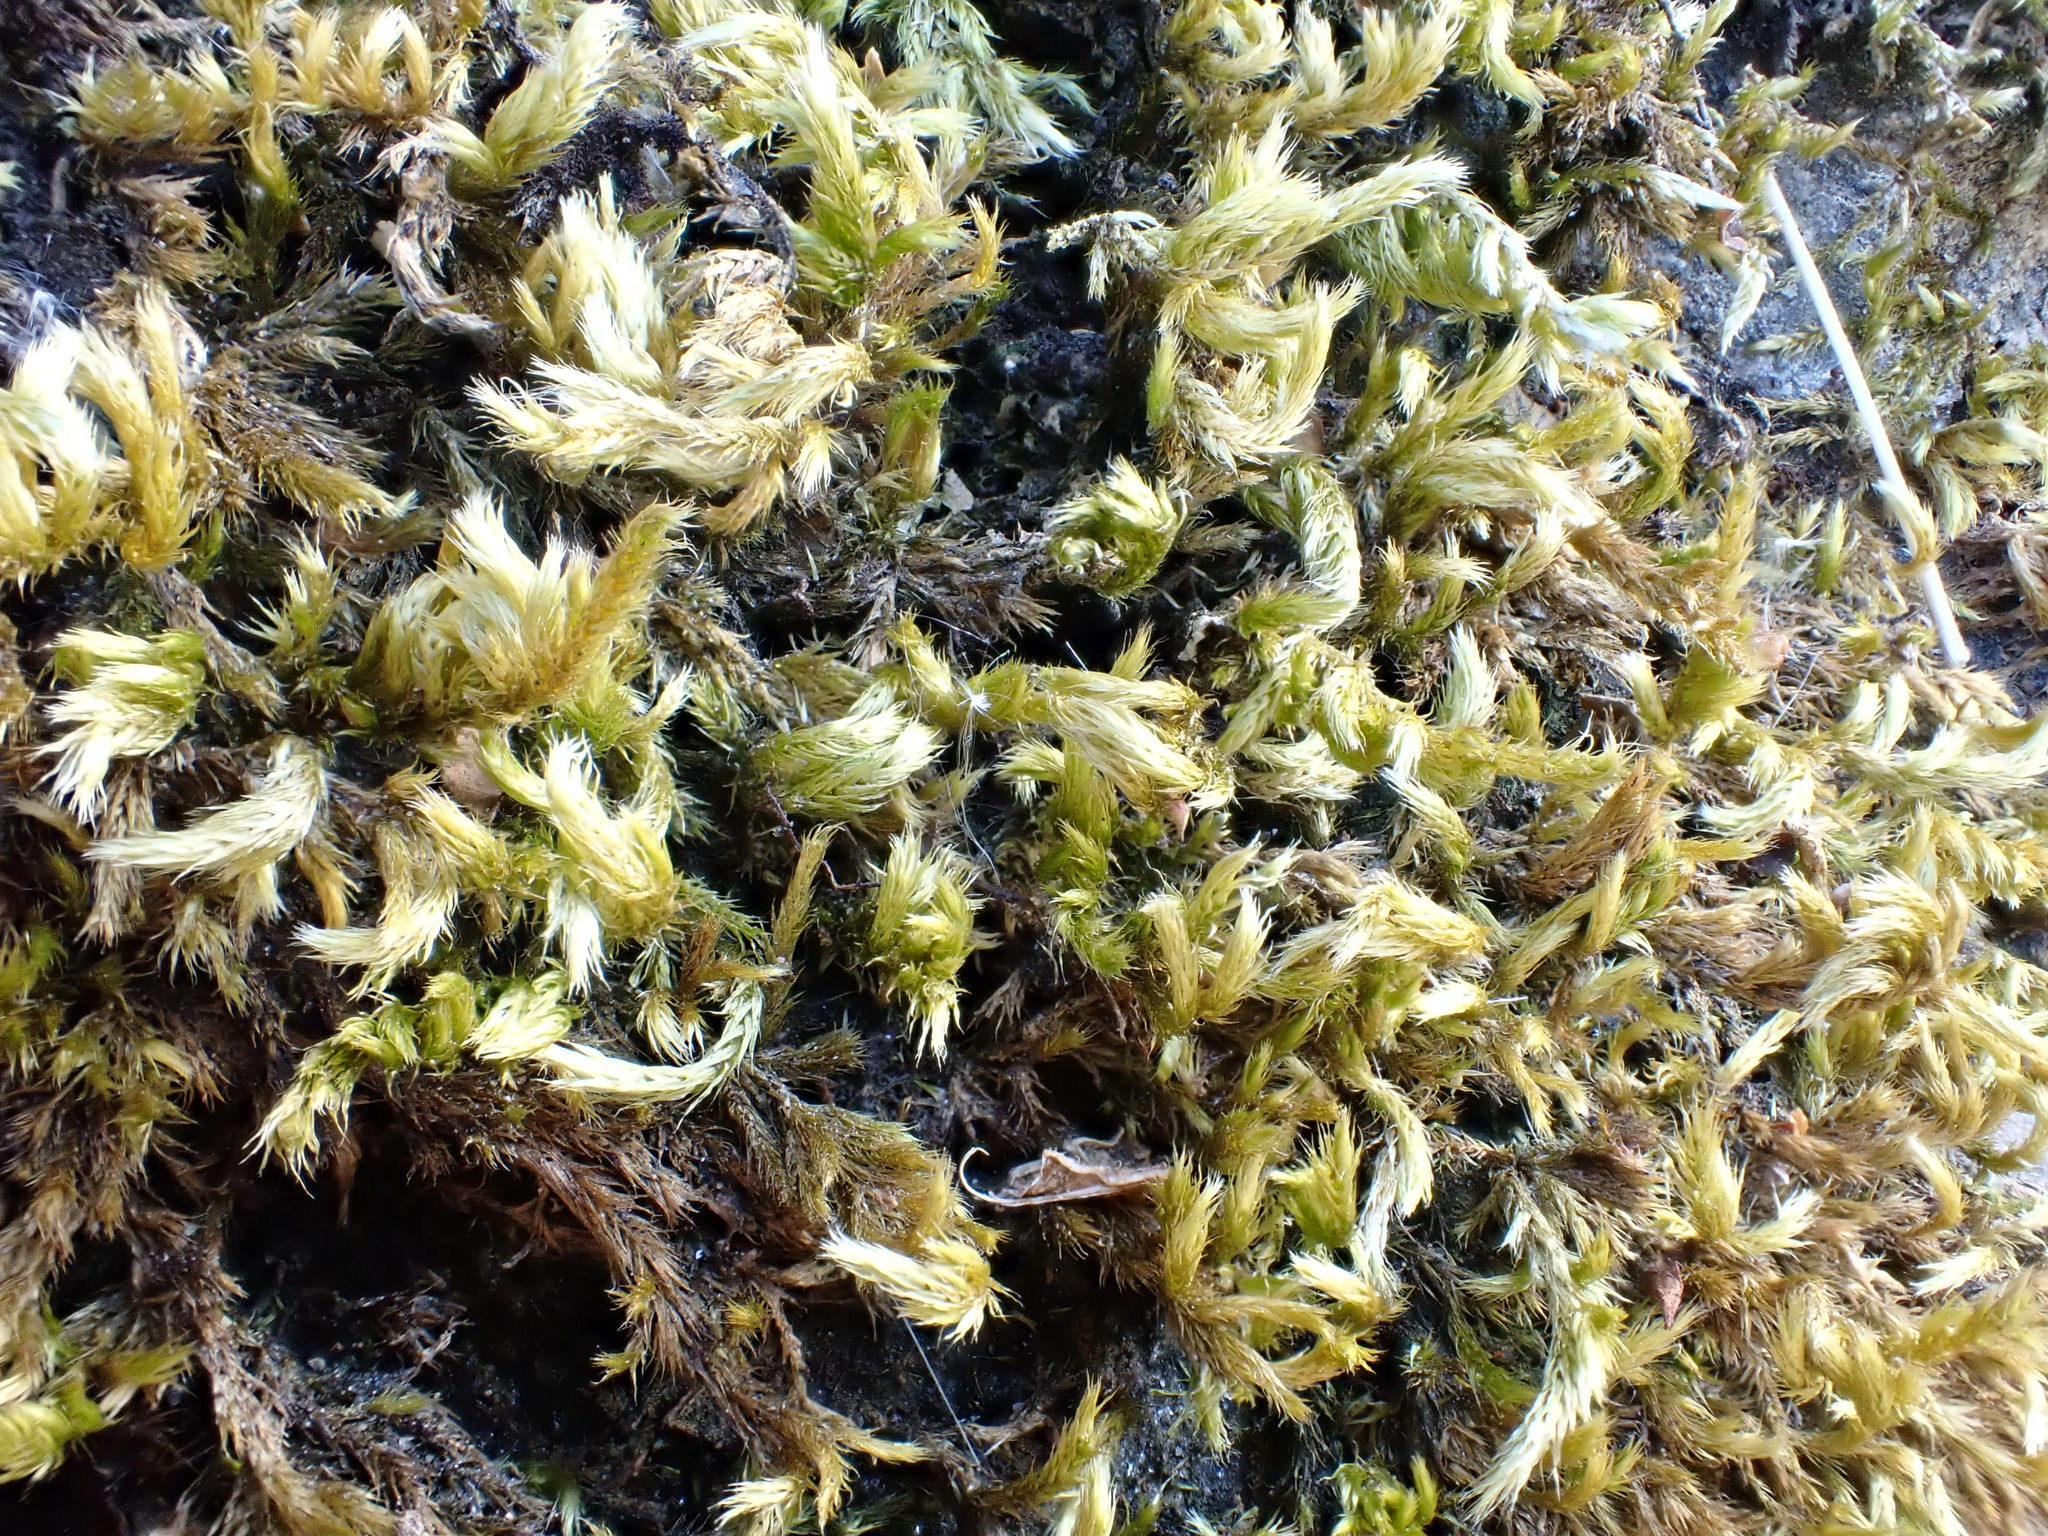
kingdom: Plantae
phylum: Bryophyta
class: Bryopsida
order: Hypnales
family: Brachytheciaceae
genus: Homalothecium
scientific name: Homalothecium sericeum
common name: Silky wall feather-moss
